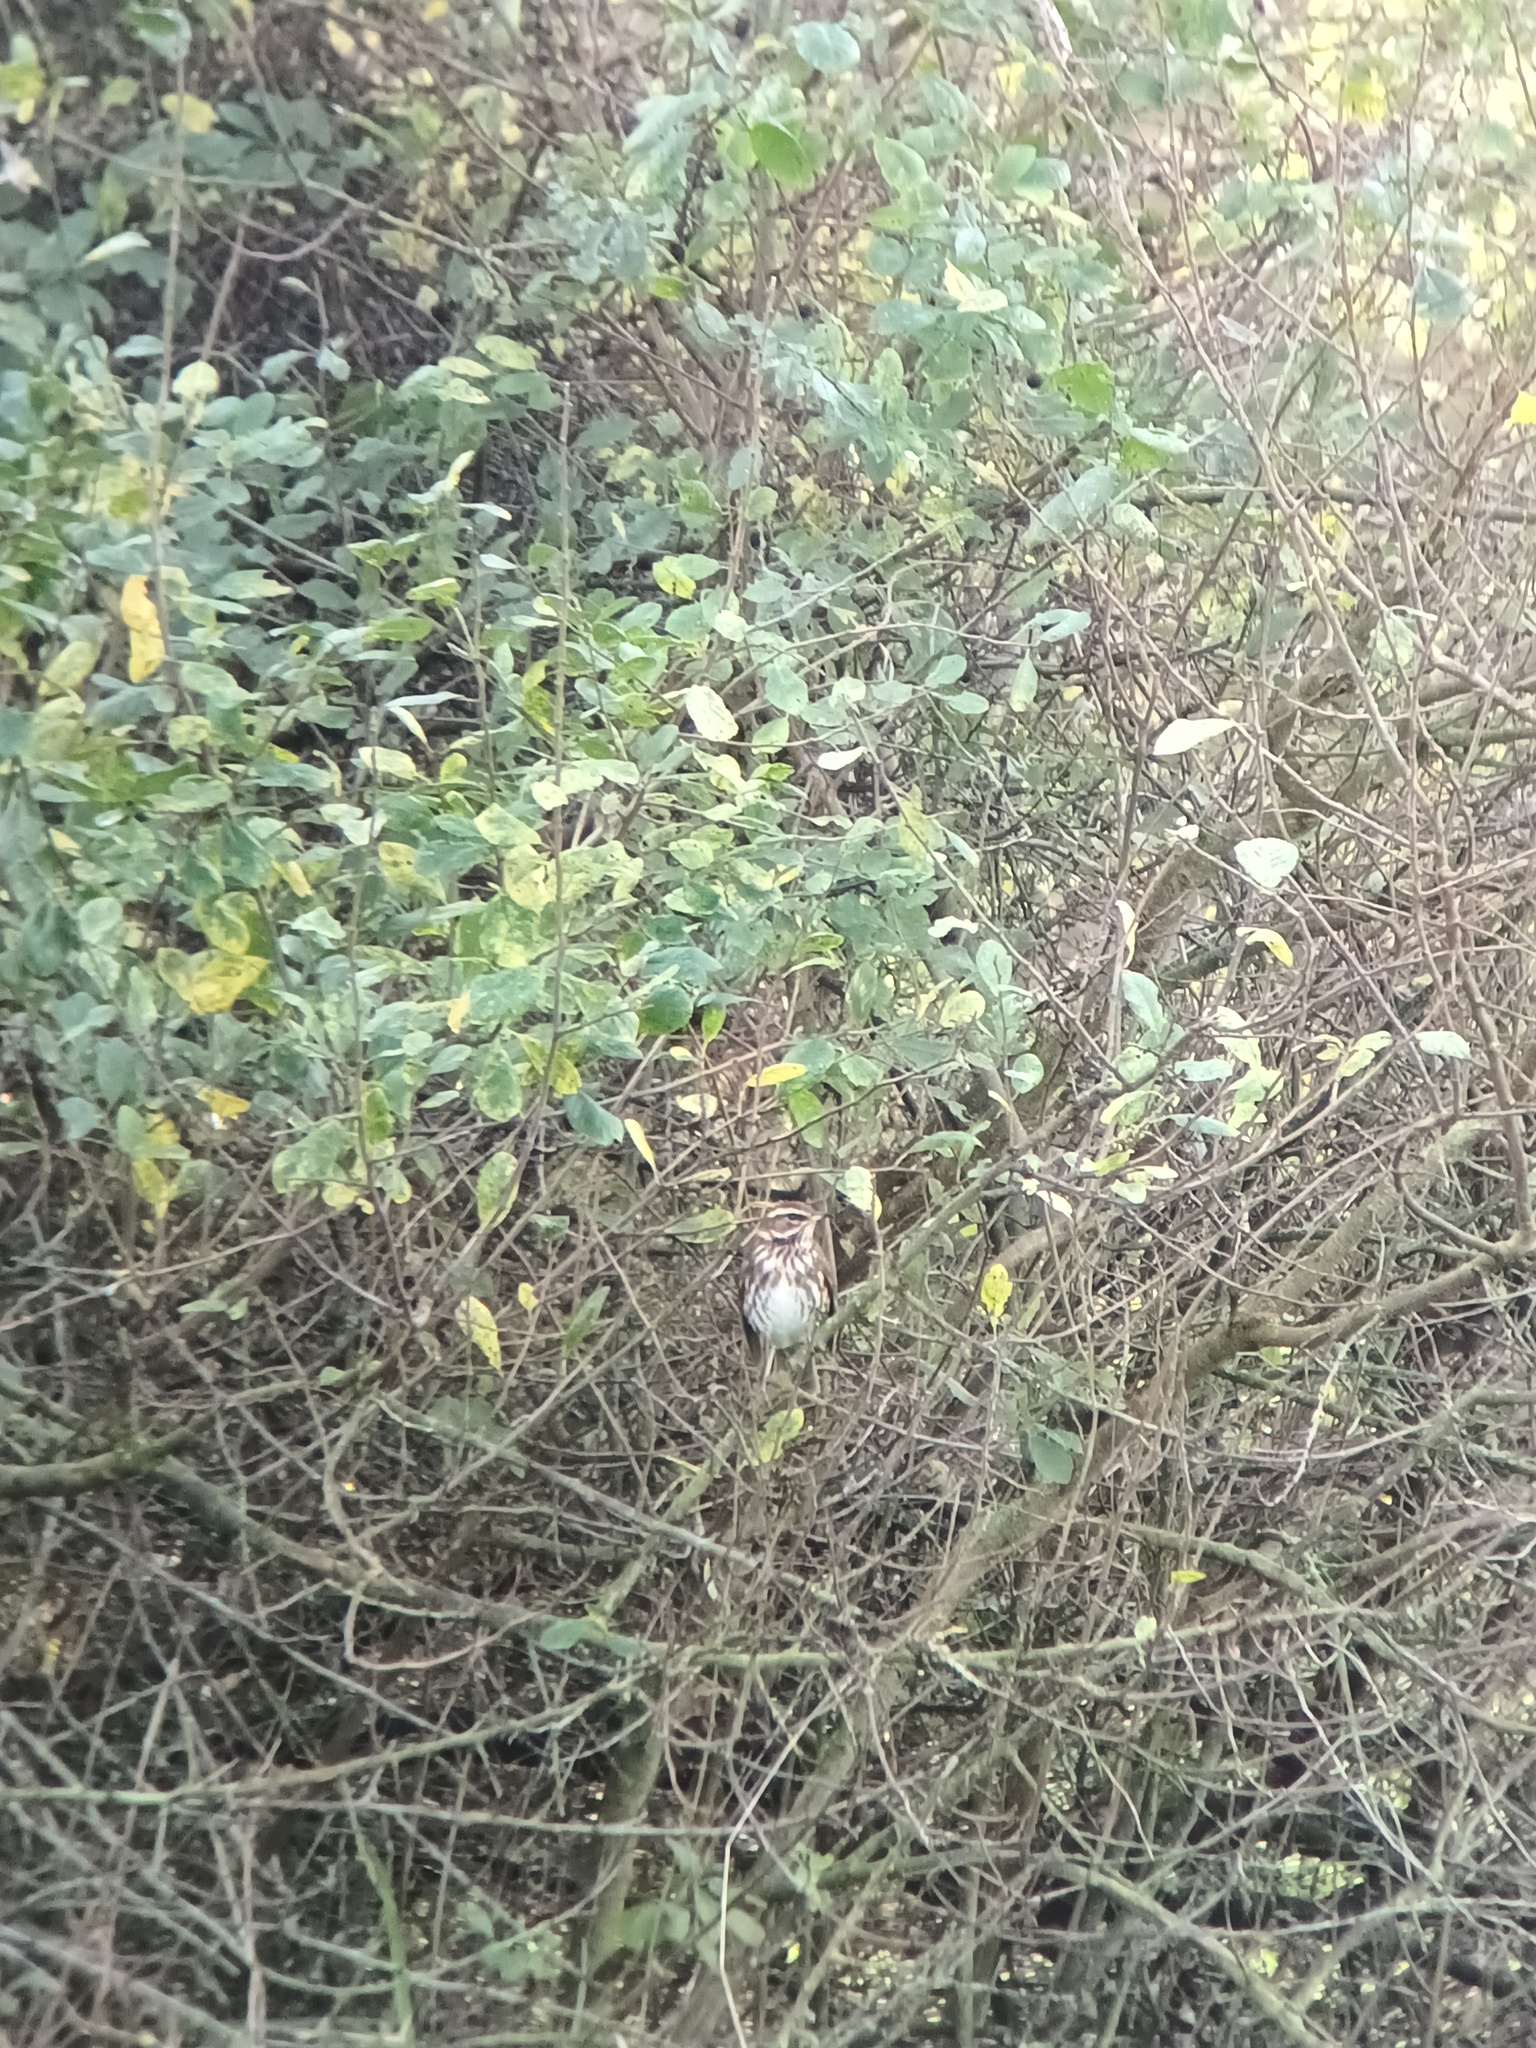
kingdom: Animalia
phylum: Chordata
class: Aves
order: Passeriformes
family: Turdidae
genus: Turdus
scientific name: Turdus iliacus
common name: Redwing
